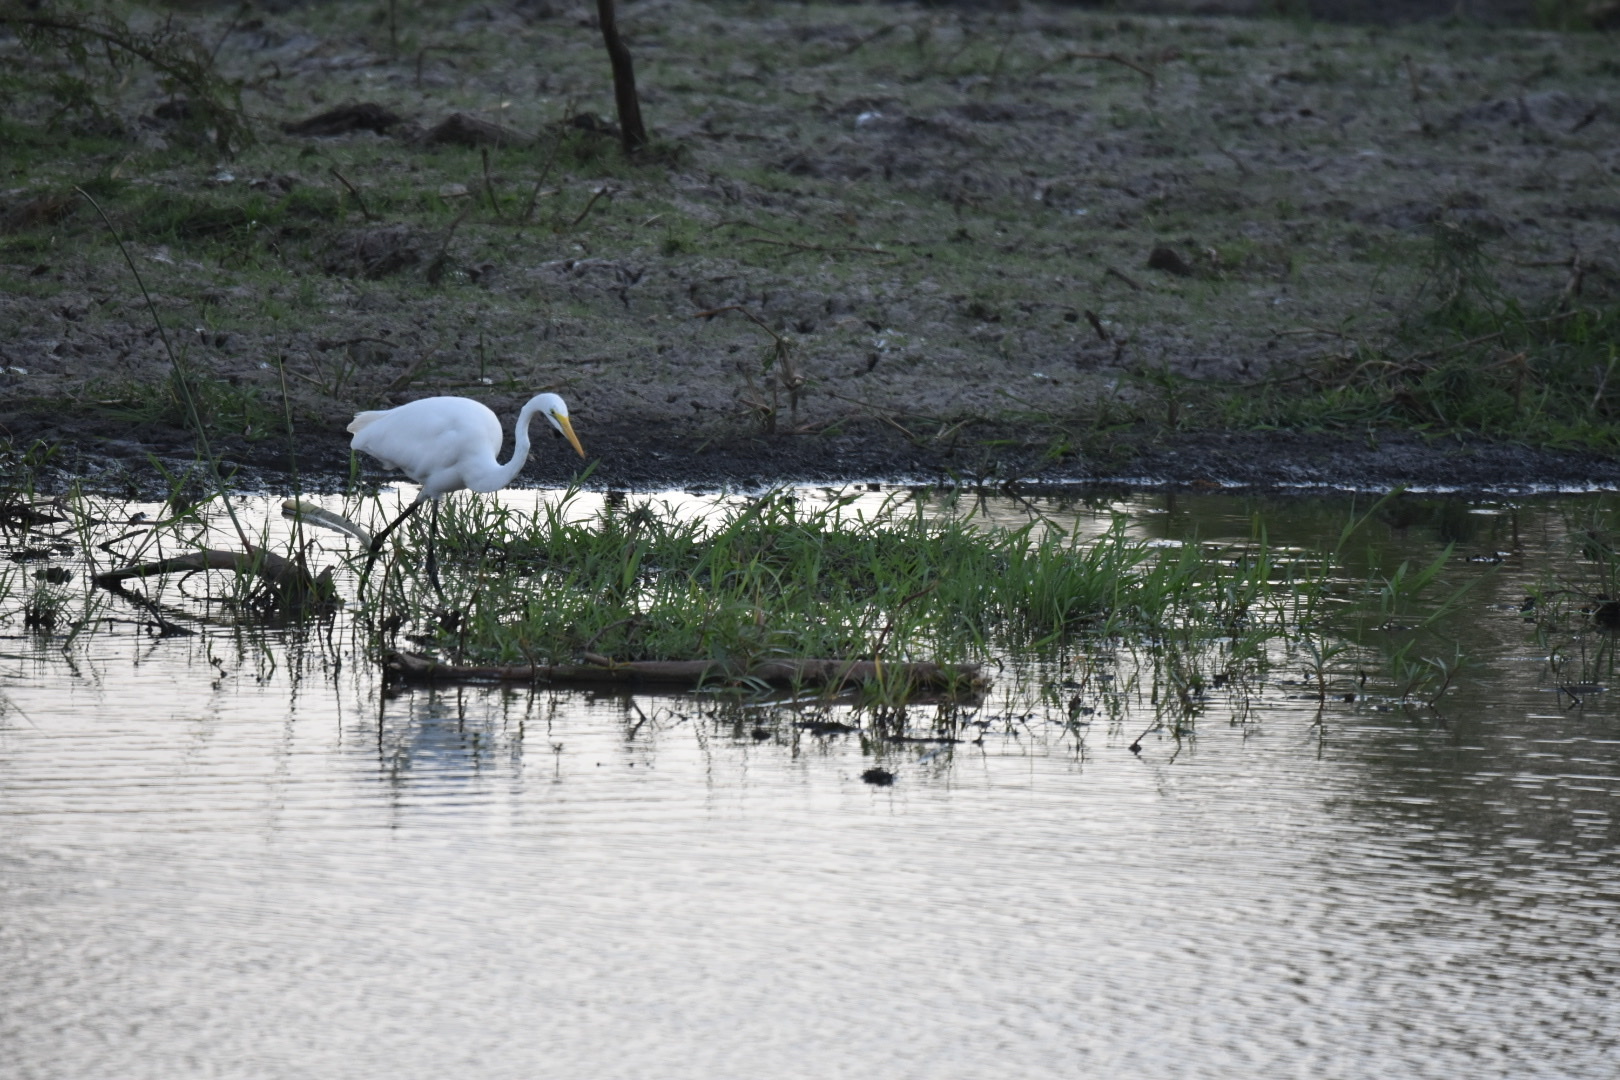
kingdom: Animalia
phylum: Chordata
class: Aves
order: Pelecaniformes
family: Ardeidae
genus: Ardea
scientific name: Ardea alba
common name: Great egret
